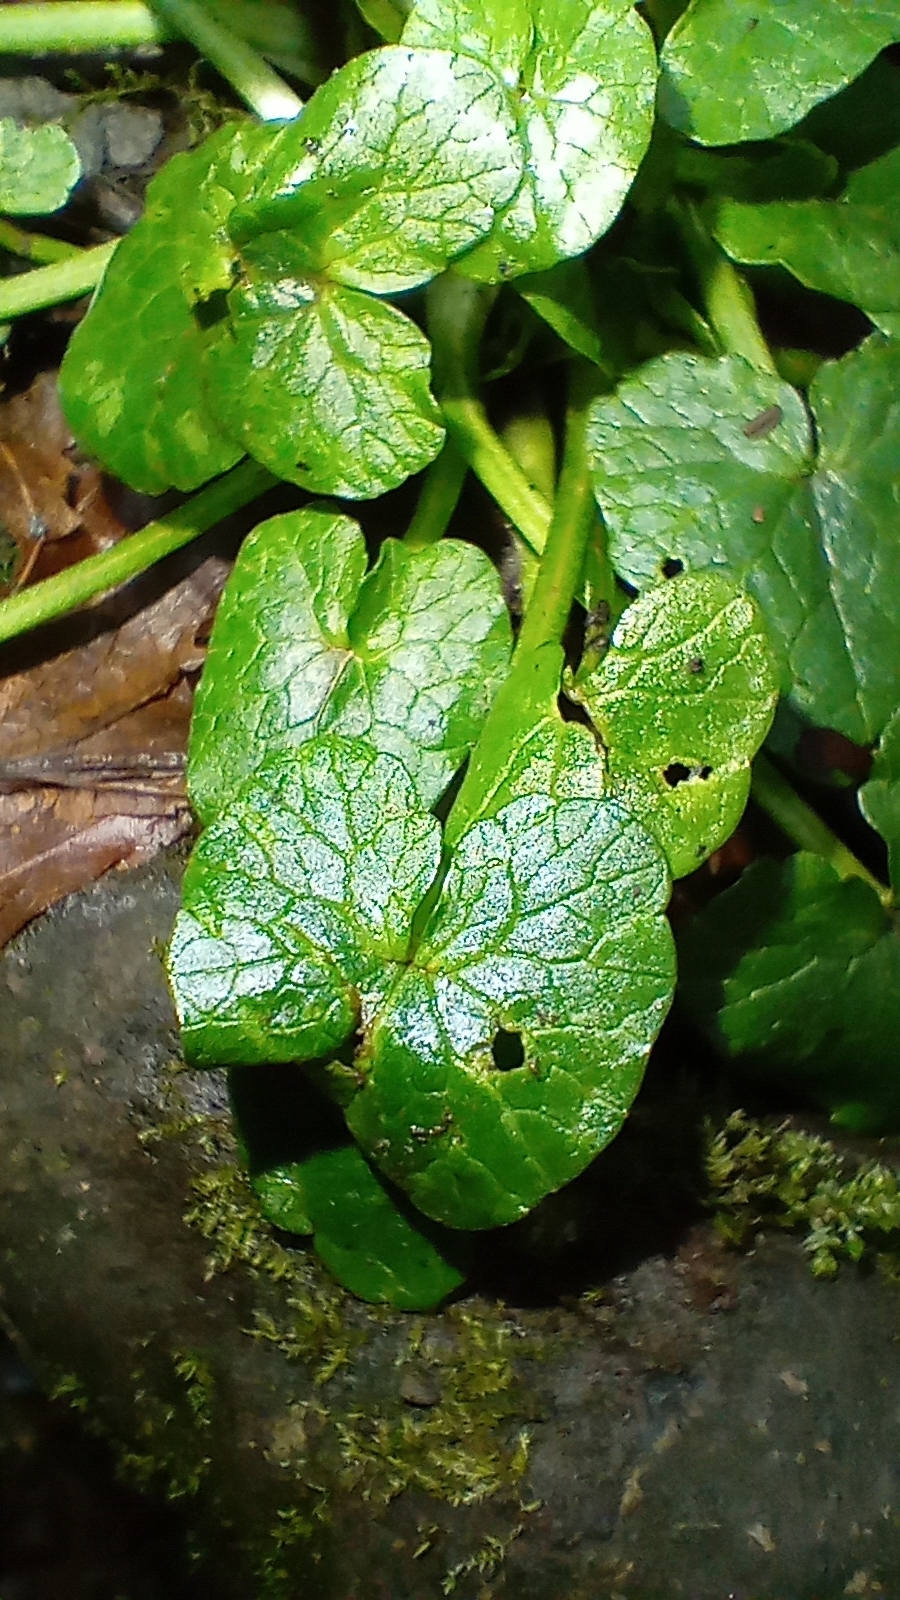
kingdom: Plantae
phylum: Tracheophyta
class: Magnoliopsida
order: Ranunculales
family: Ranunculaceae
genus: Ficaria
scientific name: Ficaria verna
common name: Lesser celandine
